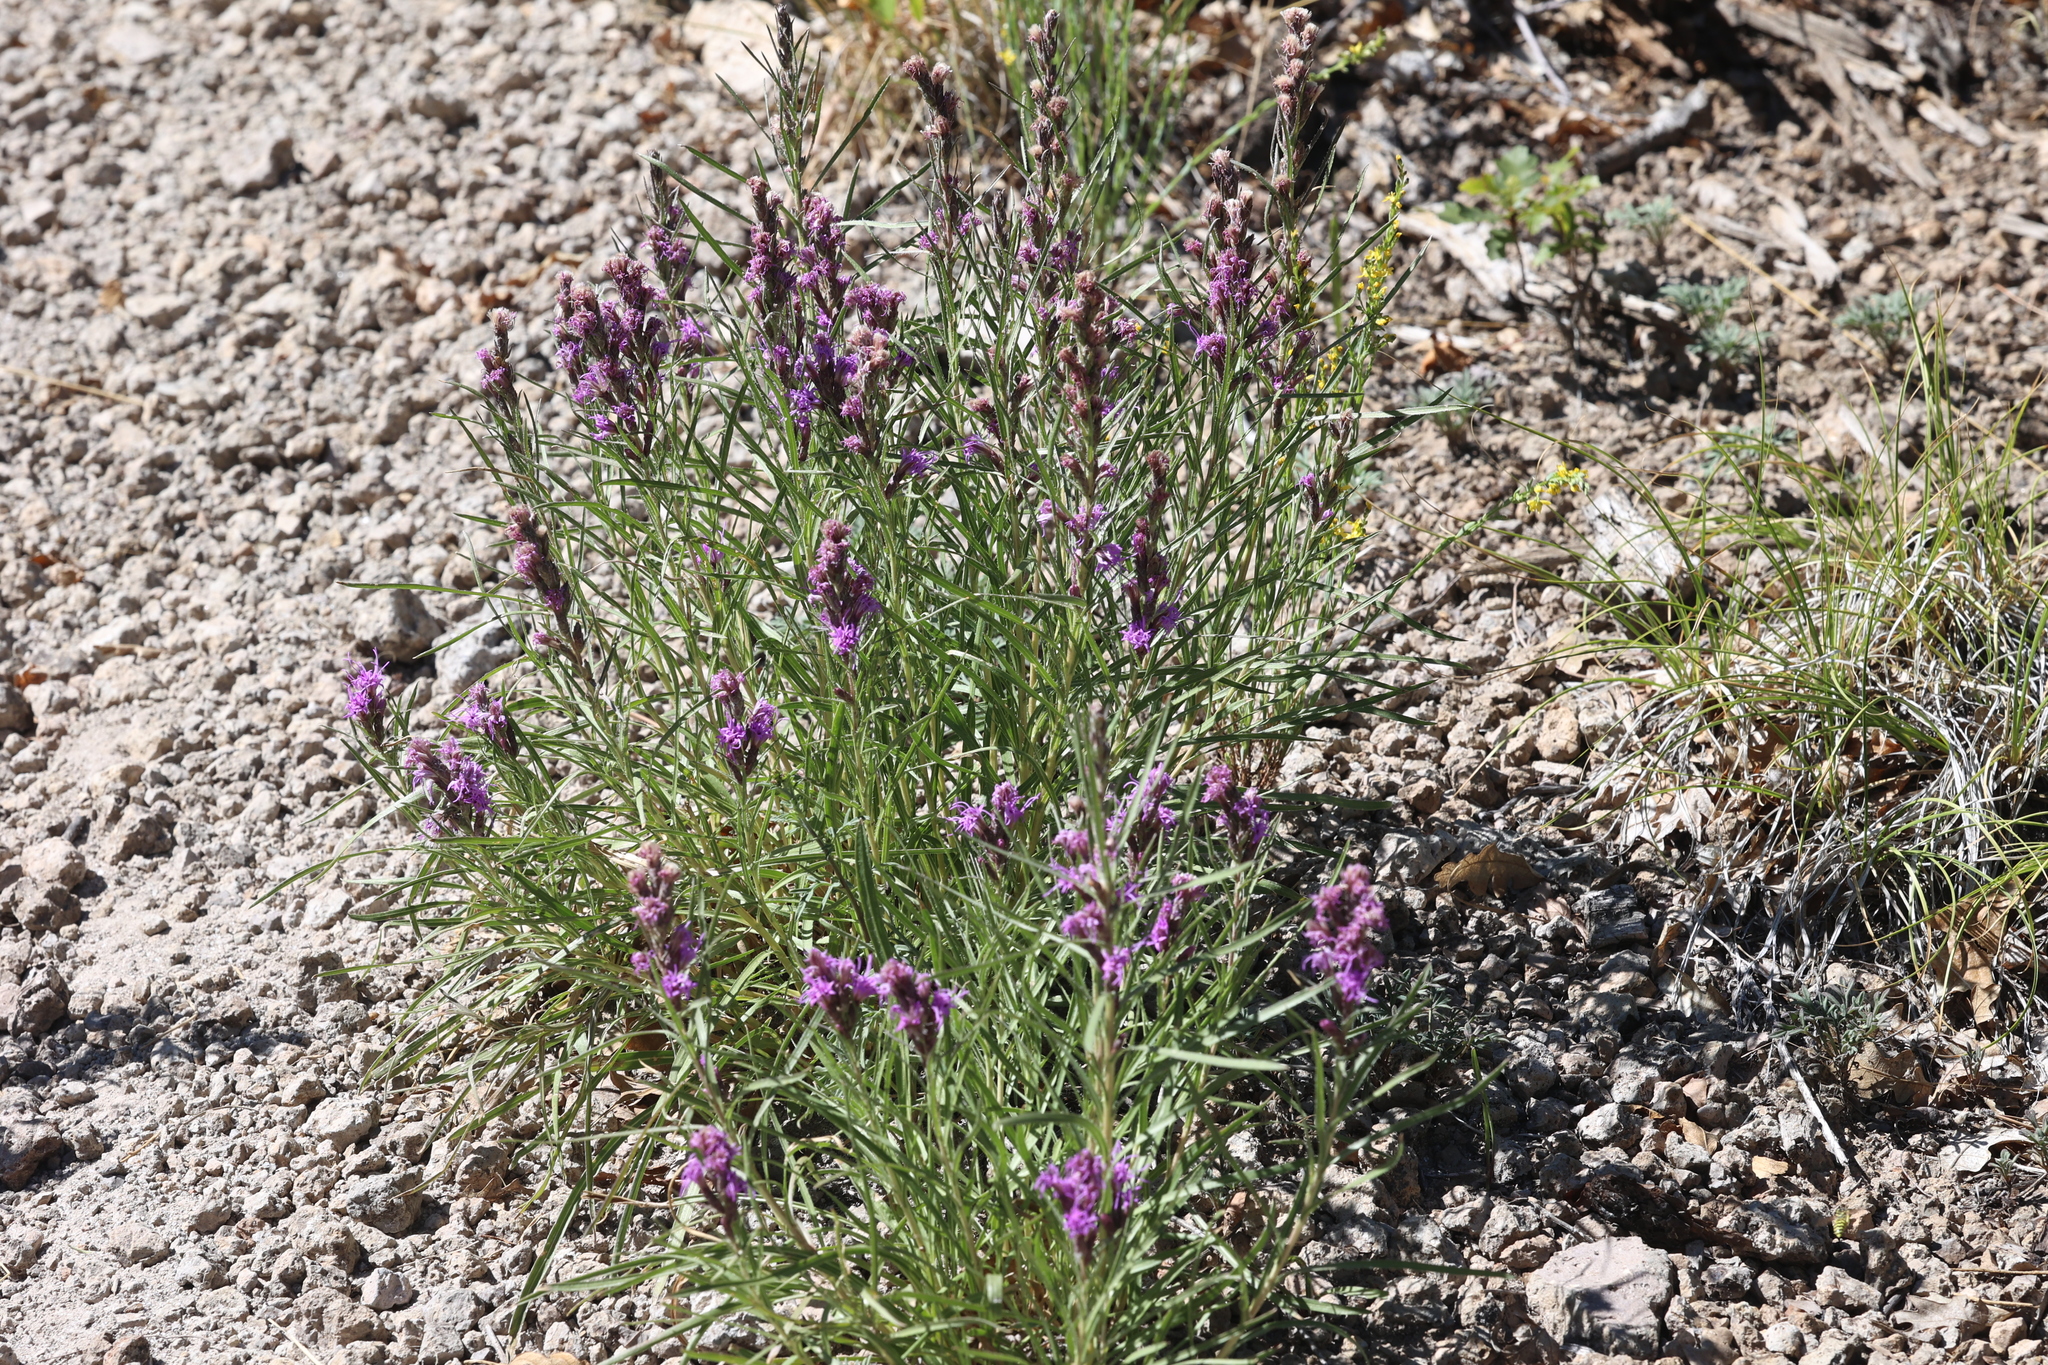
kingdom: Plantae
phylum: Tracheophyta
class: Magnoliopsida
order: Asterales
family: Asteraceae
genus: Liatris
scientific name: Liatris punctata
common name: Dotted gayfeather
